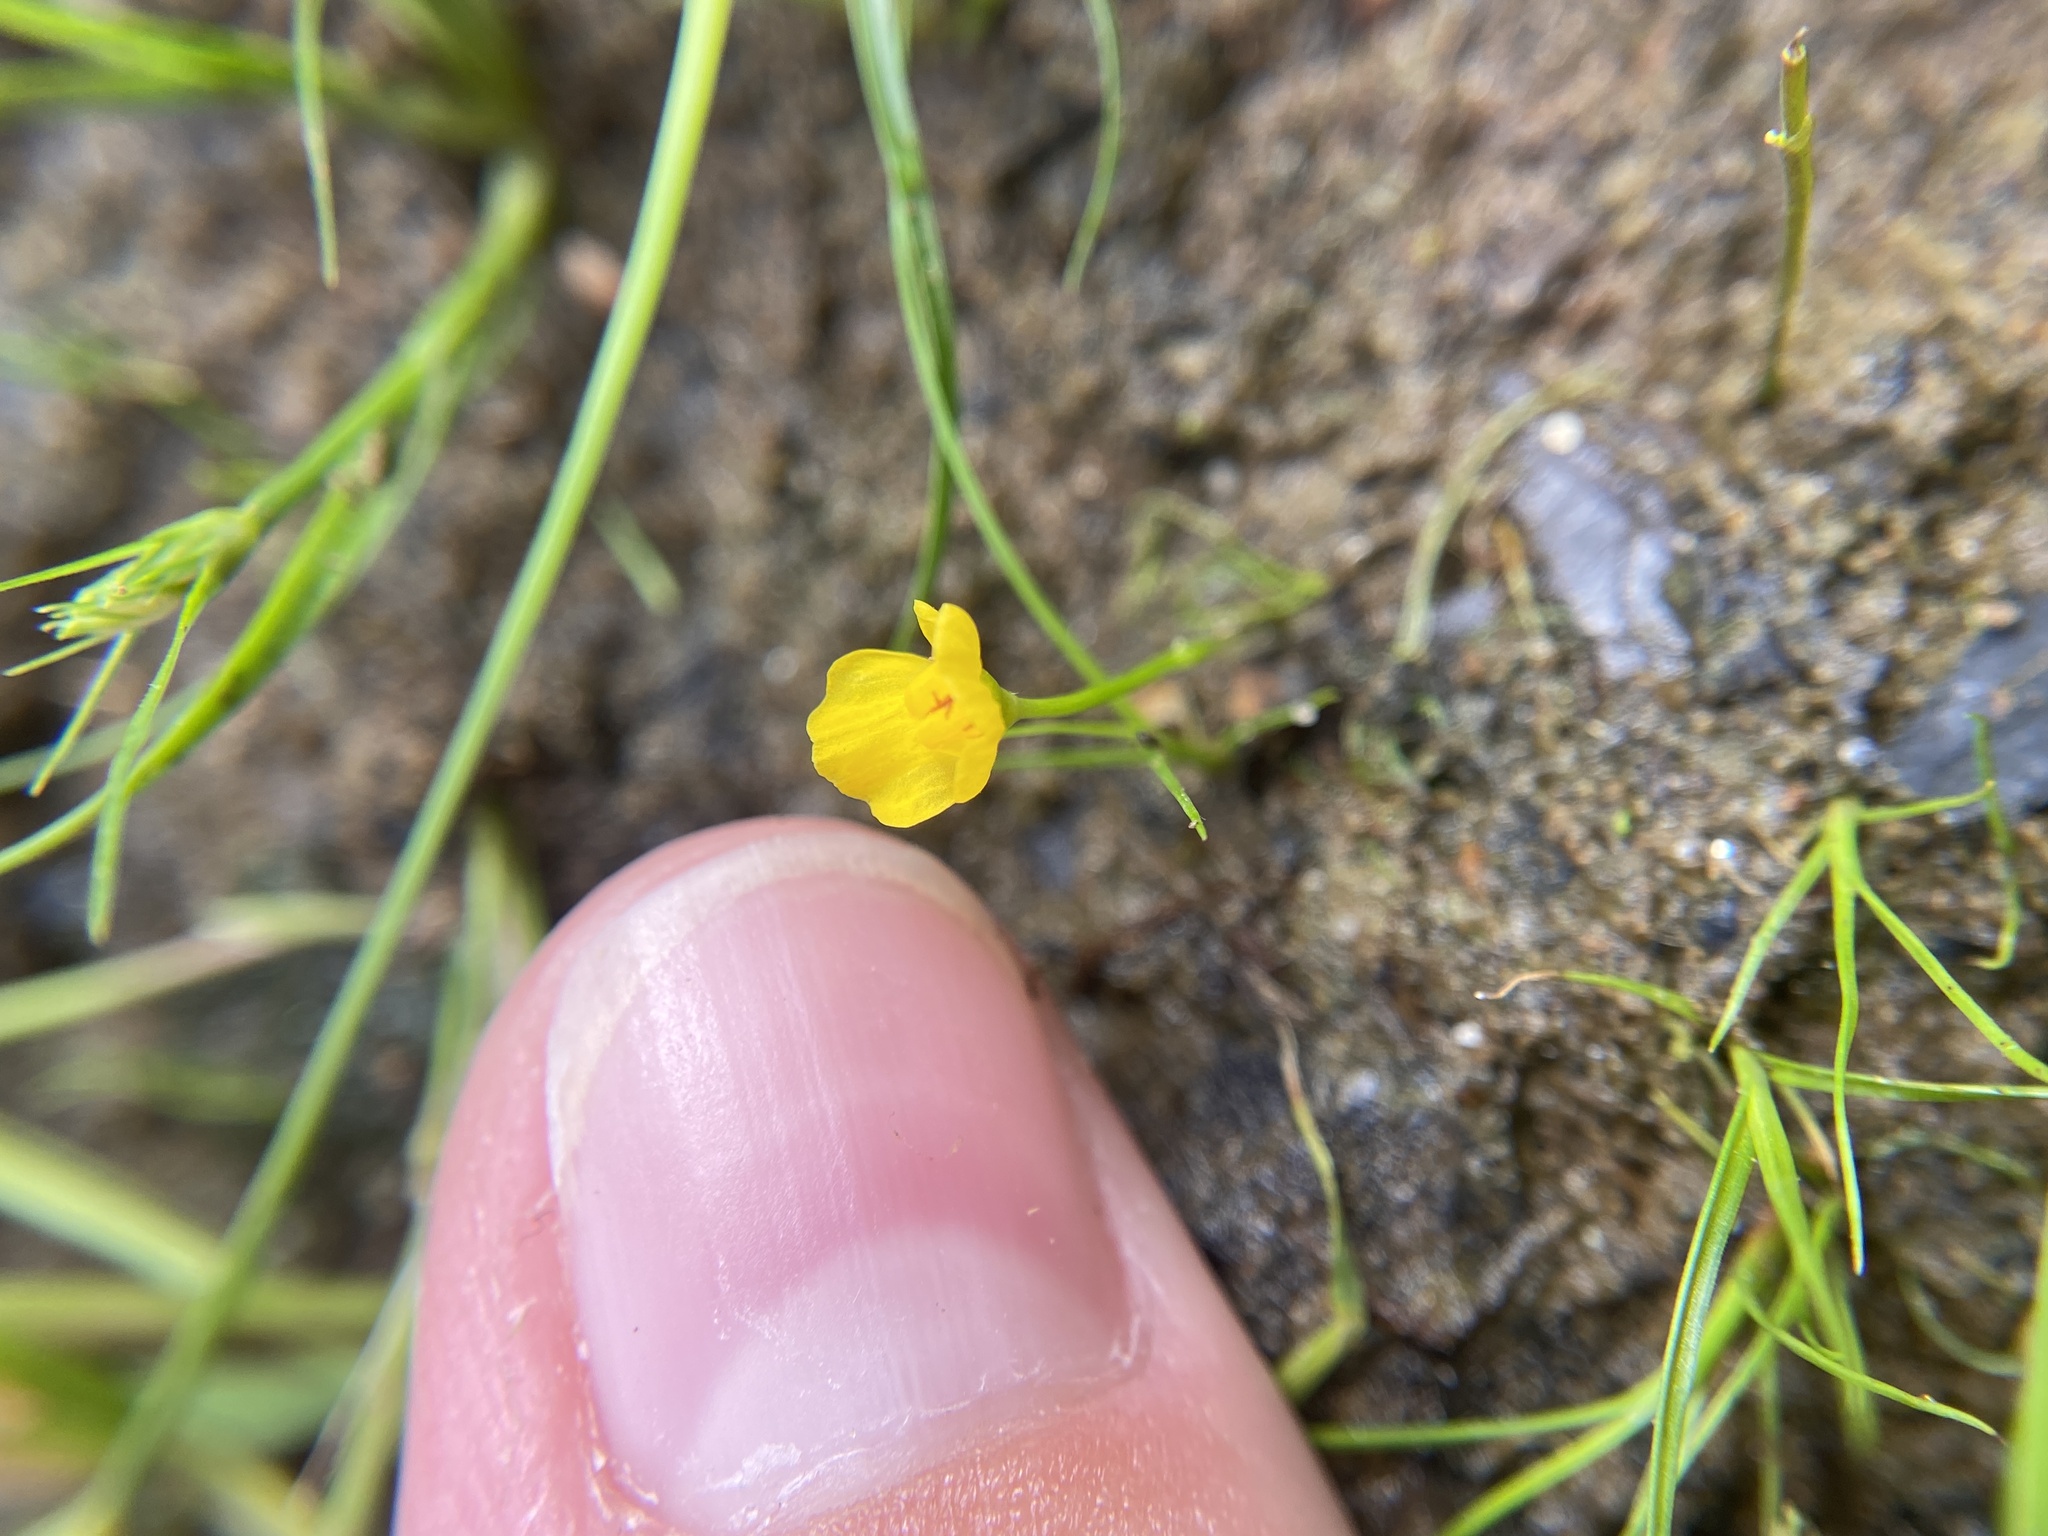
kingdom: Plantae
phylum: Tracheophyta
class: Magnoliopsida
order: Lamiales
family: Lentibulariaceae
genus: Utricularia
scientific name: Utricularia gibba
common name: Humped bladderwort
